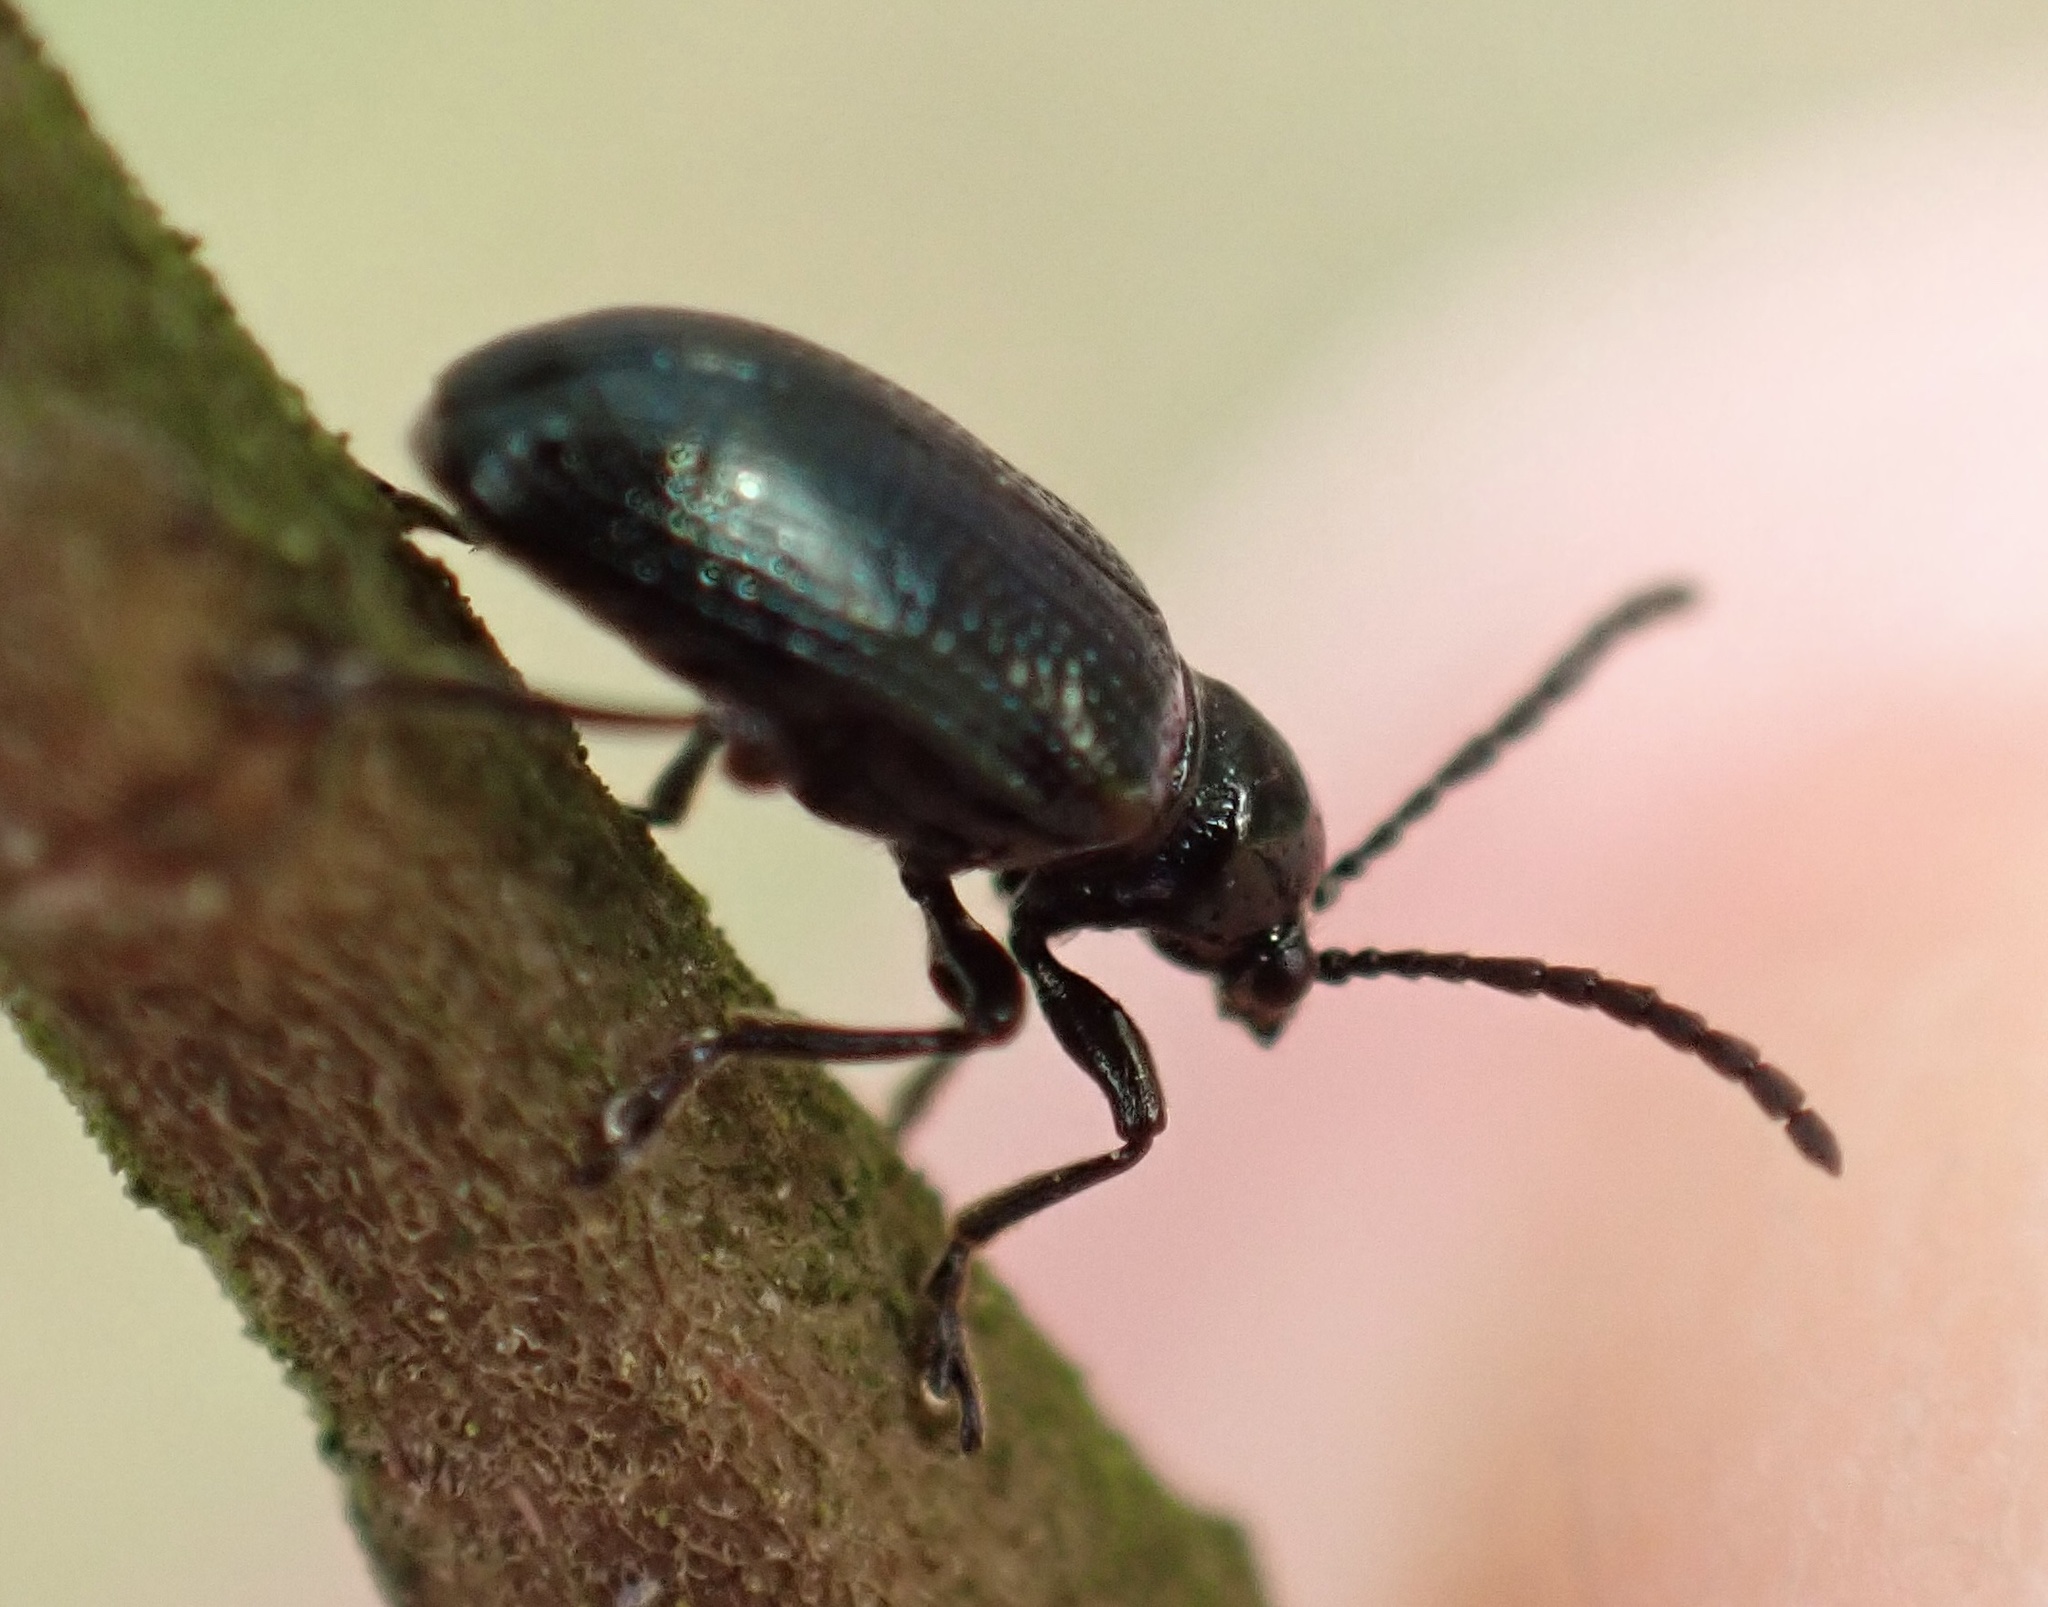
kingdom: Animalia
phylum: Arthropoda
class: Insecta
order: Coleoptera
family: Chrysomelidae
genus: Oulema
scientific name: Oulema gallaeciana
